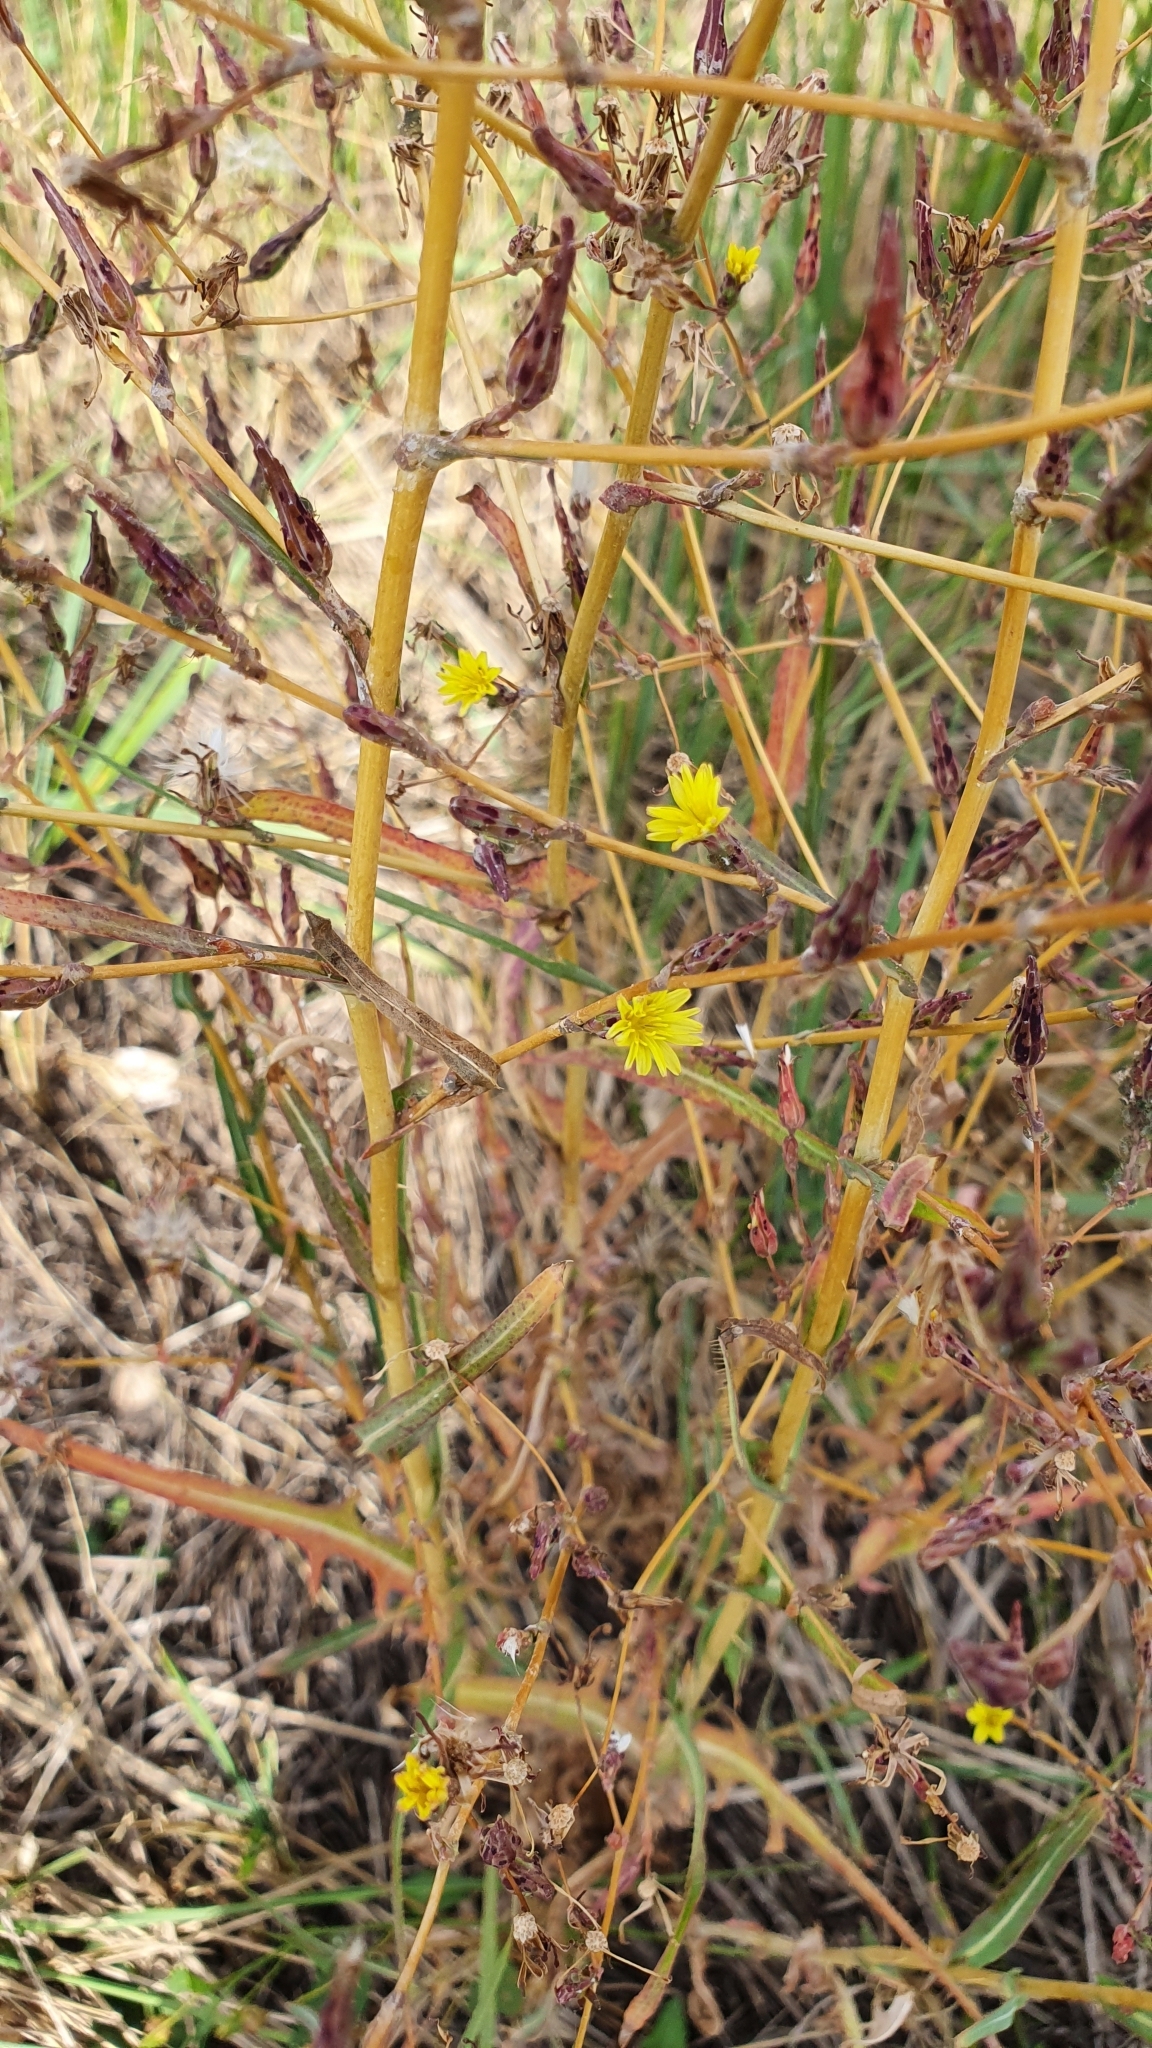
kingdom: Plantae
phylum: Tracheophyta
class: Magnoliopsida
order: Asterales
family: Asteraceae
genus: Lactuca
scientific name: Lactuca serriola
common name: Prickly lettuce
